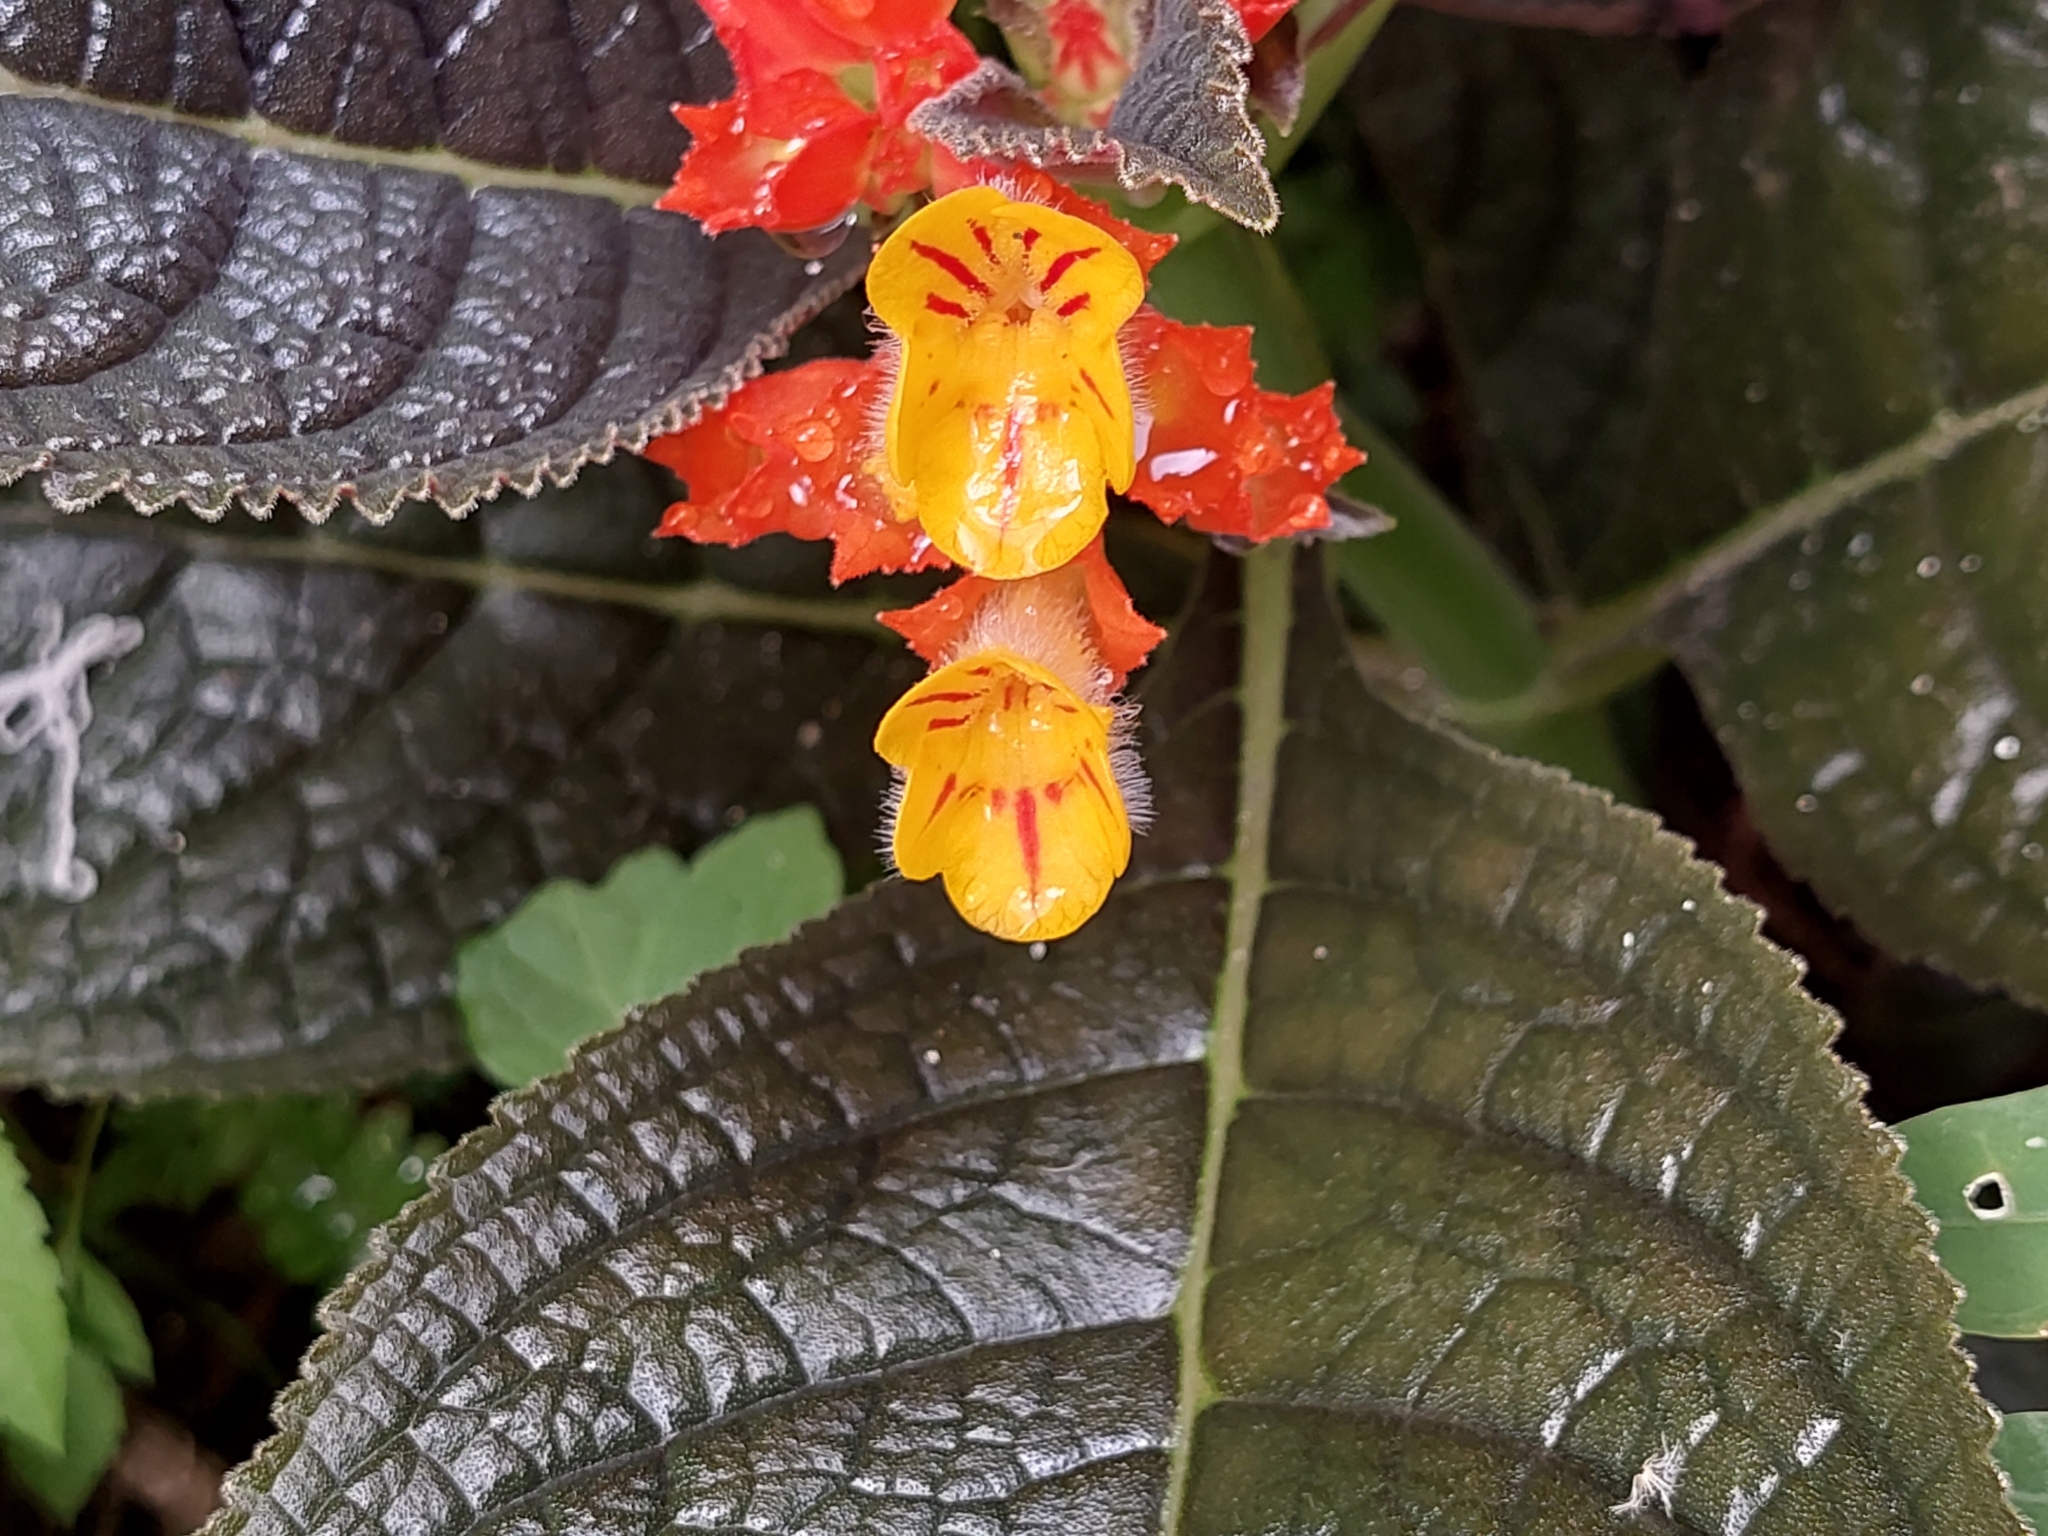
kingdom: Plantae
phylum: Tracheophyta
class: Magnoliopsida
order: Lamiales
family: Gesneriaceae
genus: Chrysothemis
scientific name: Chrysothemis pulchella
